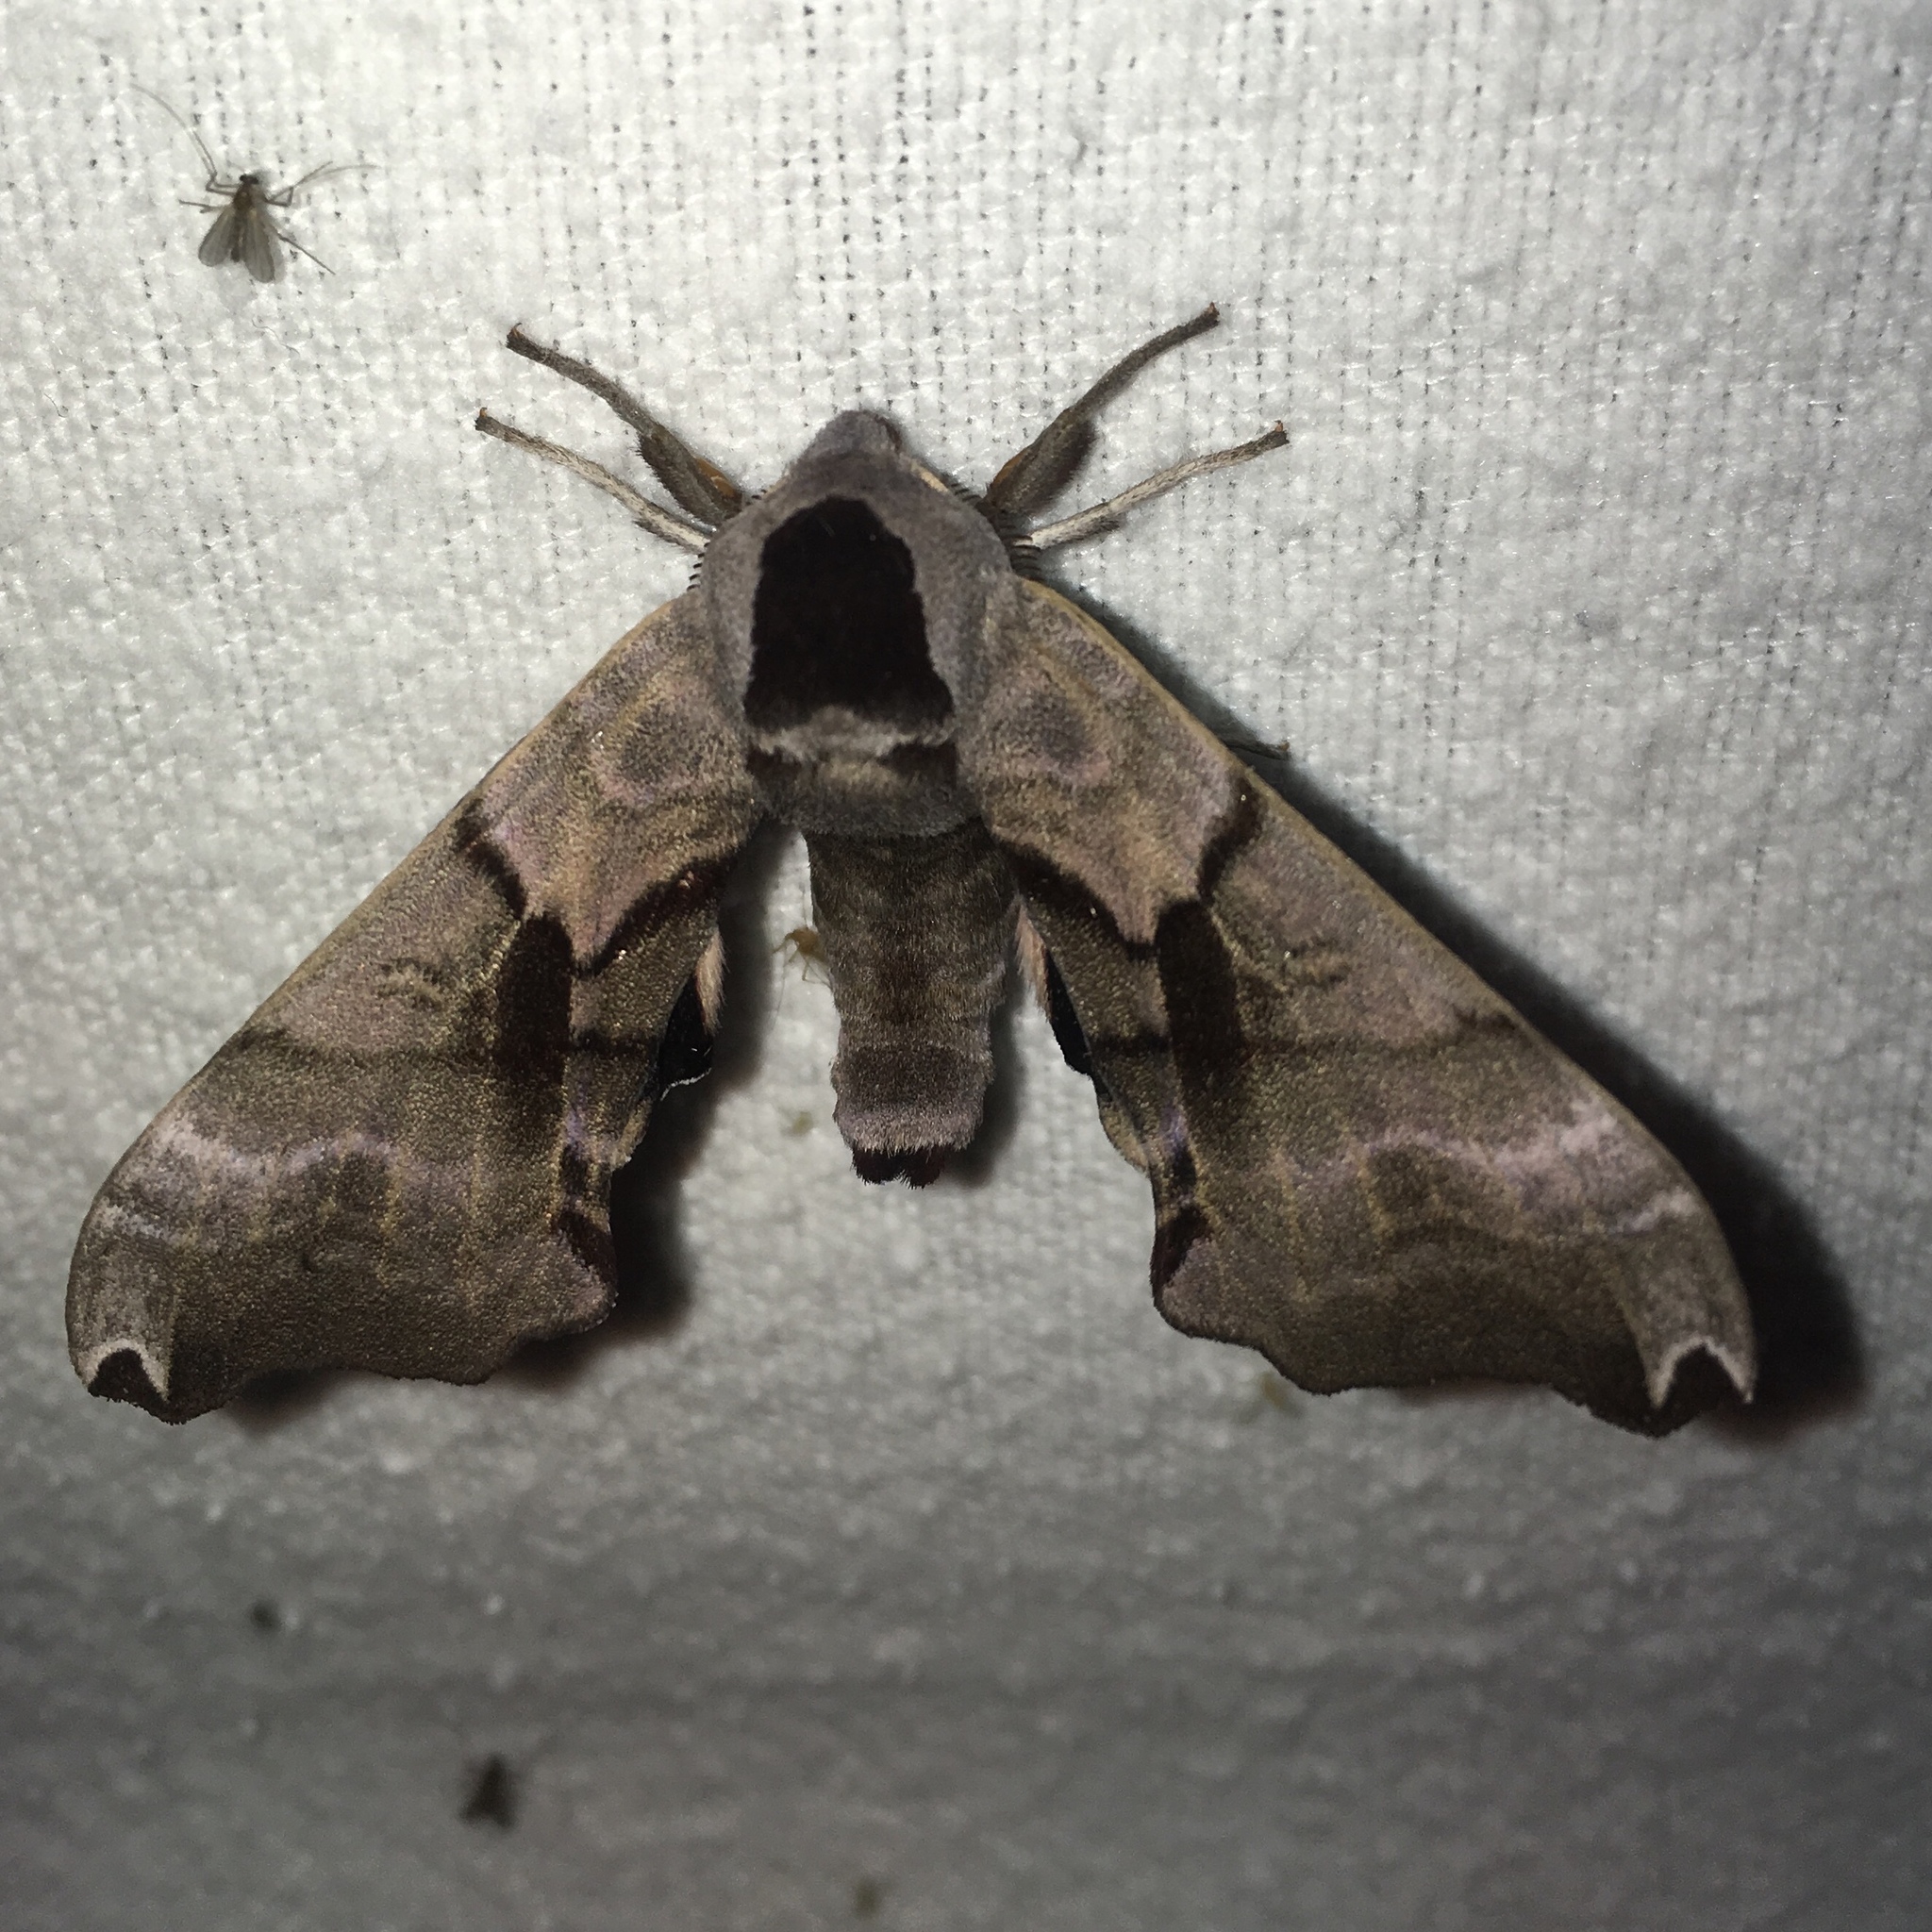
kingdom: Animalia
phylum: Arthropoda
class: Insecta
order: Lepidoptera
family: Sphingidae
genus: Smerinthus
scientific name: Smerinthus jamaicensis
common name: Twin spotted sphinx
